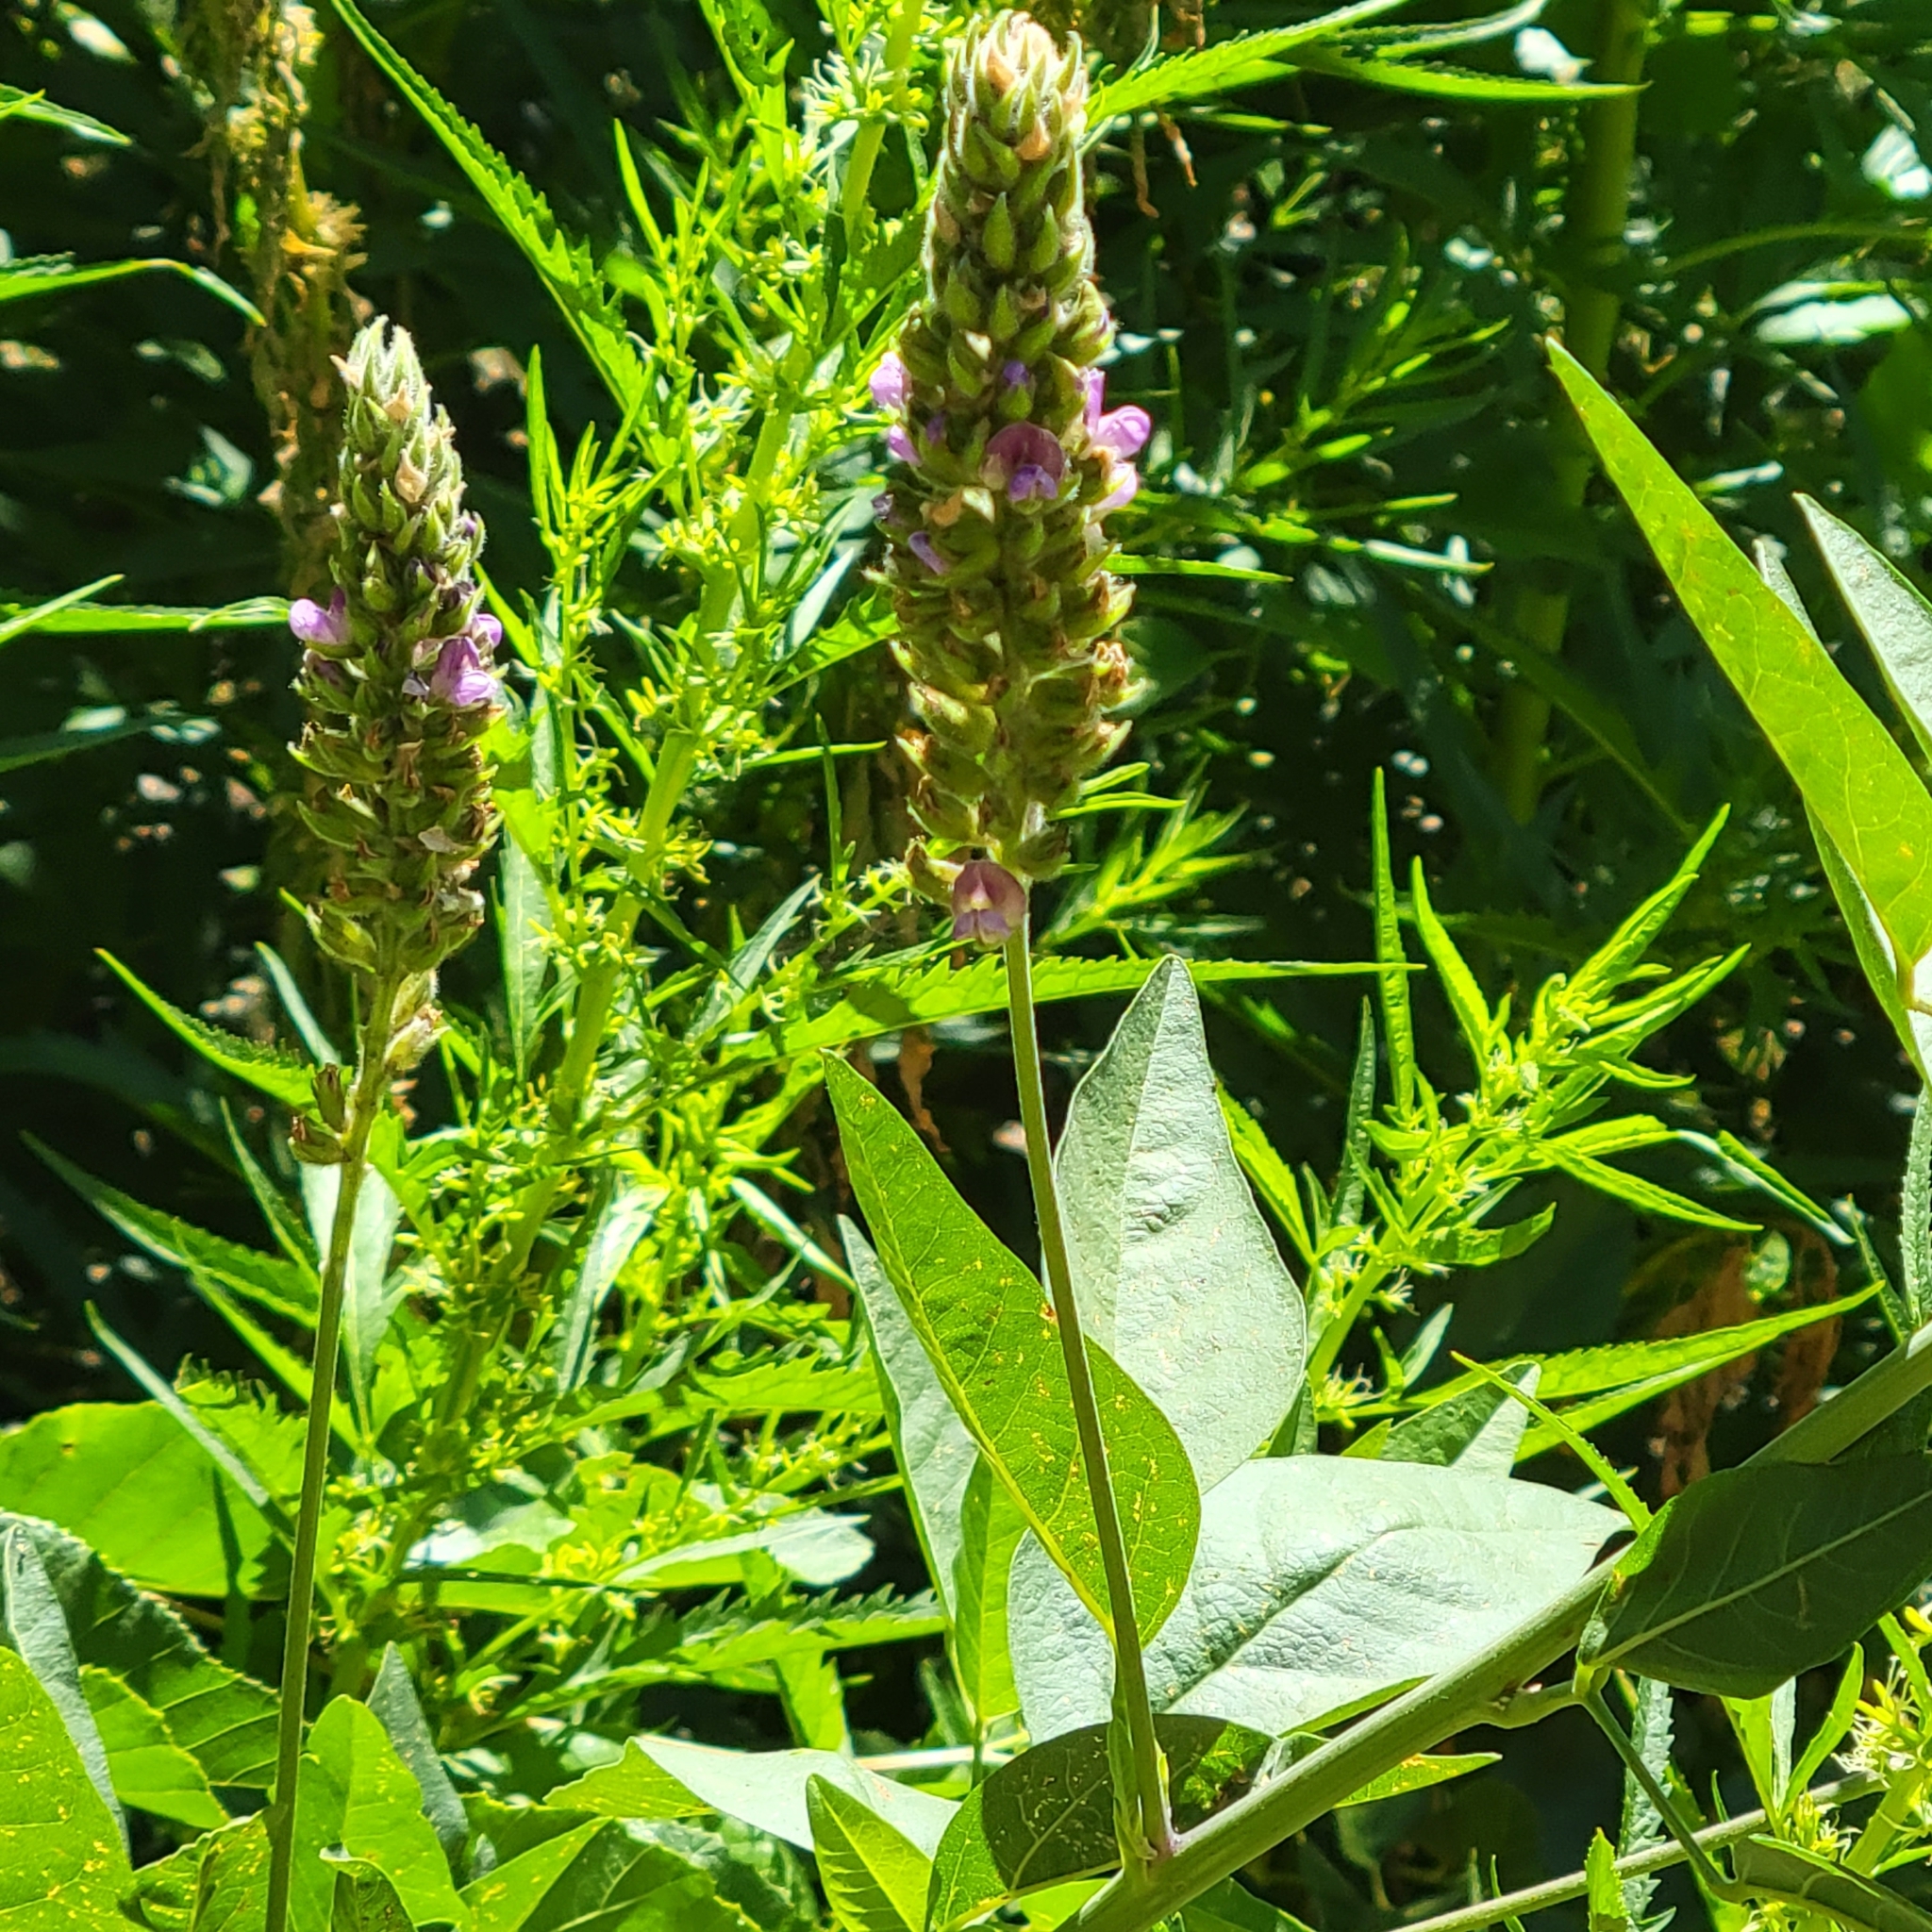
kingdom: Plantae
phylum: Tracheophyta
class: Magnoliopsida
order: Fabales
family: Fabaceae
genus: Hoita
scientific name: Hoita macrostachya
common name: Leatherroot
